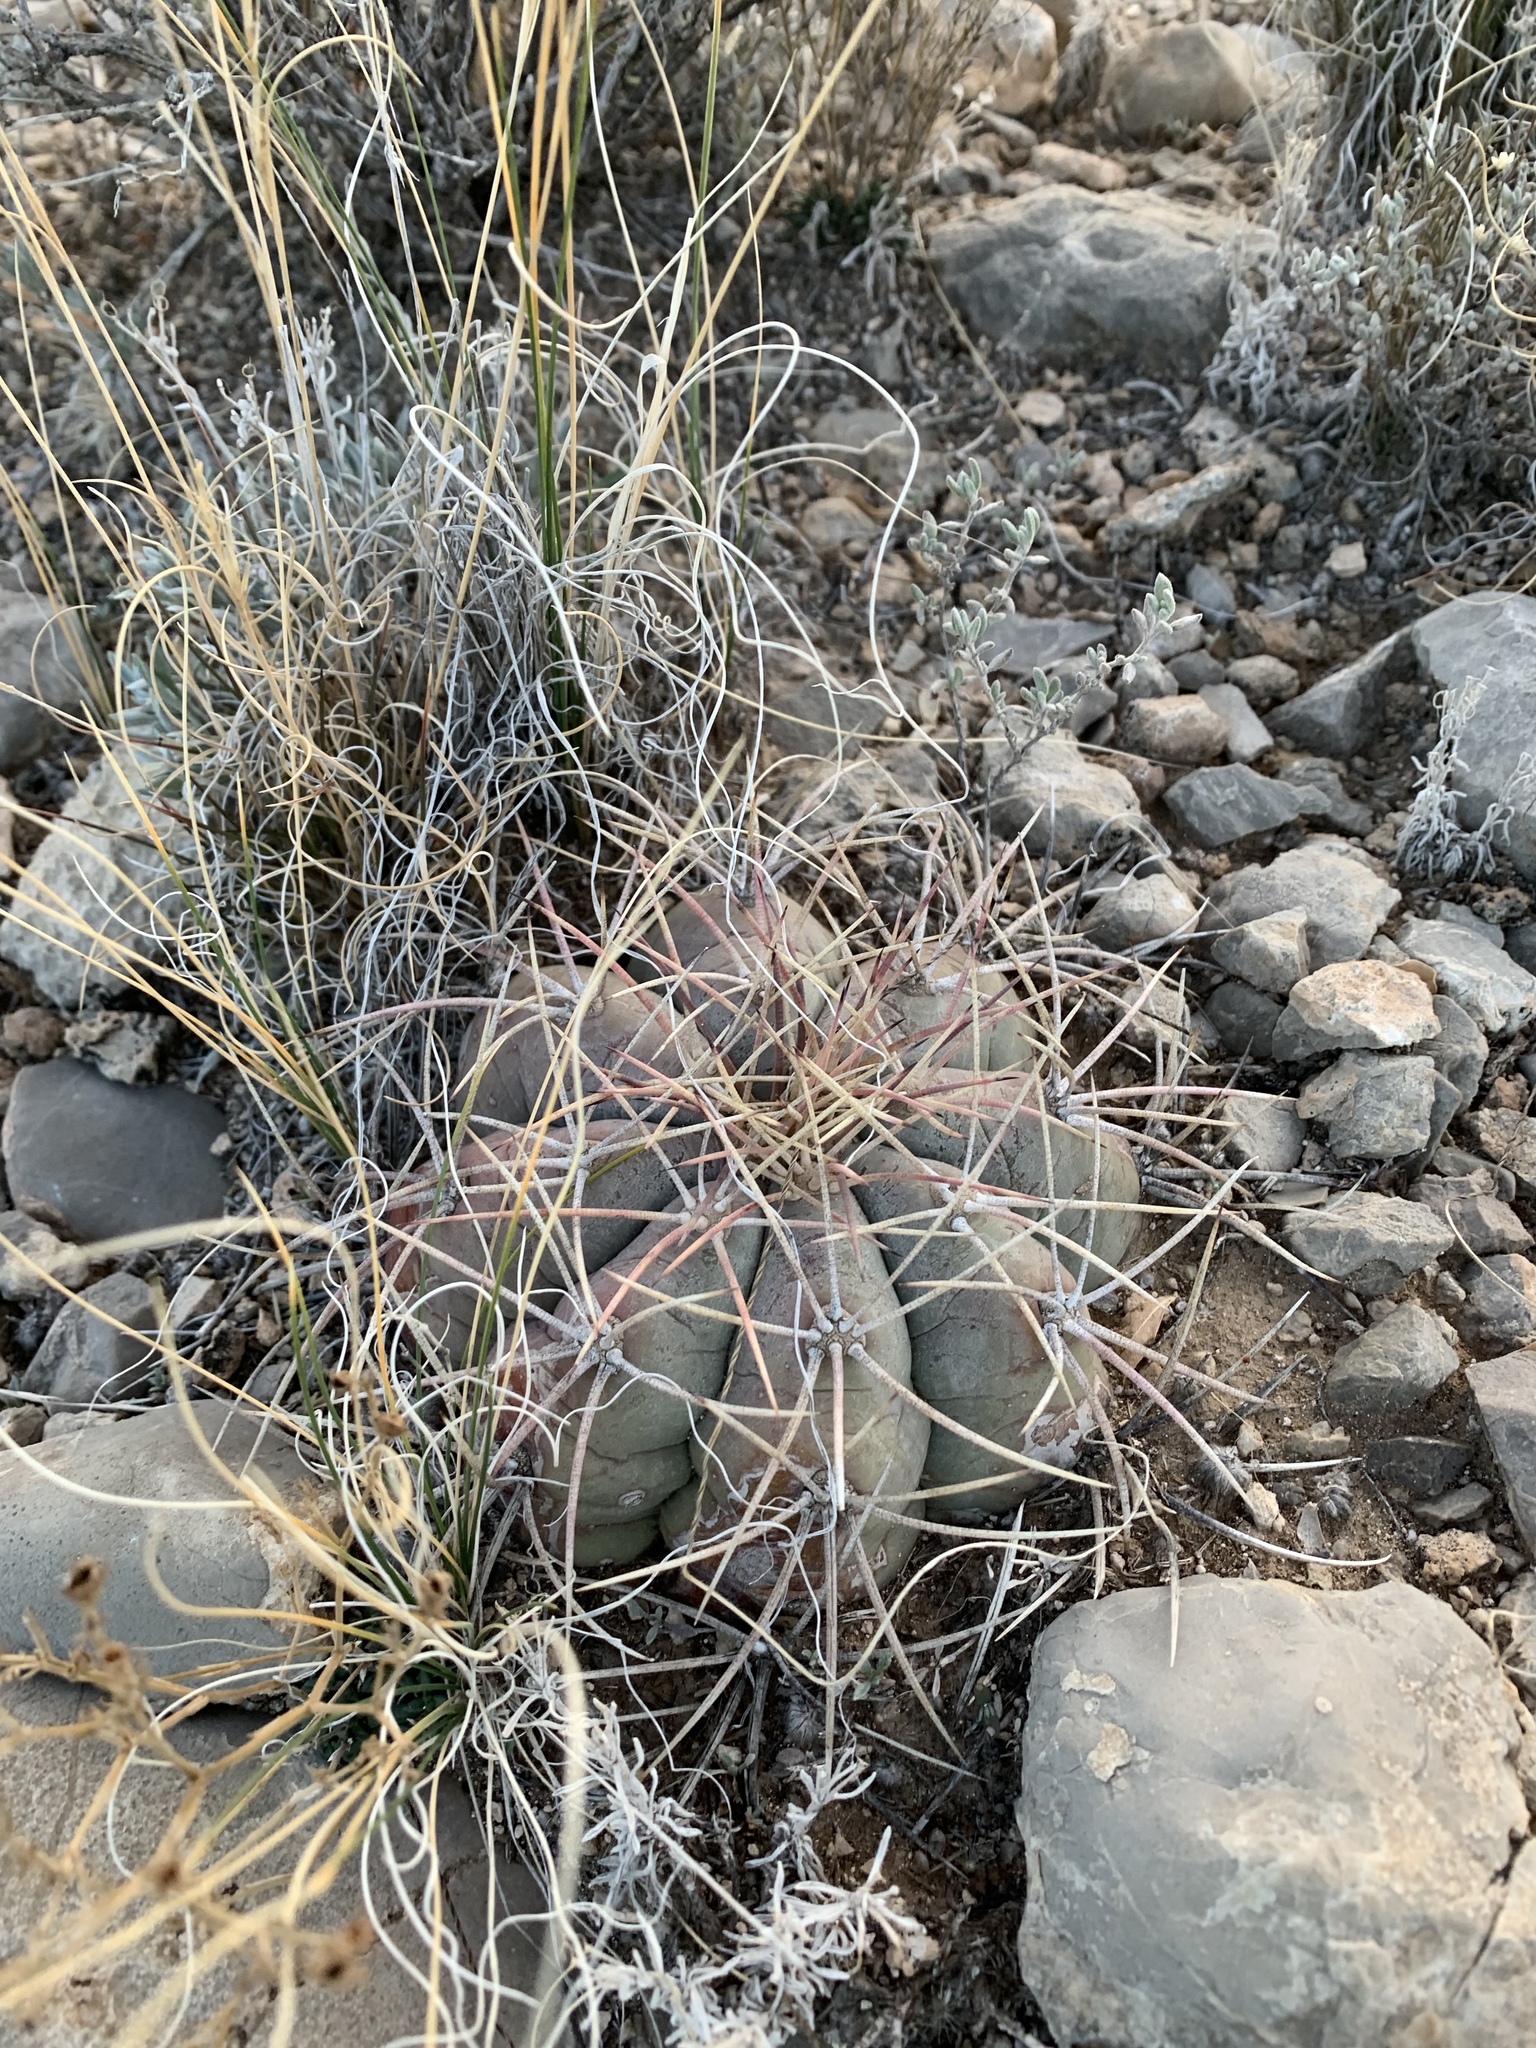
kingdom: Plantae
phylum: Tracheophyta
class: Magnoliopsida
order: Caryophyllales
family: Cactaceae
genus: Echinocactus
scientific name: Echinocactus horizonthalonius
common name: Devilshead
